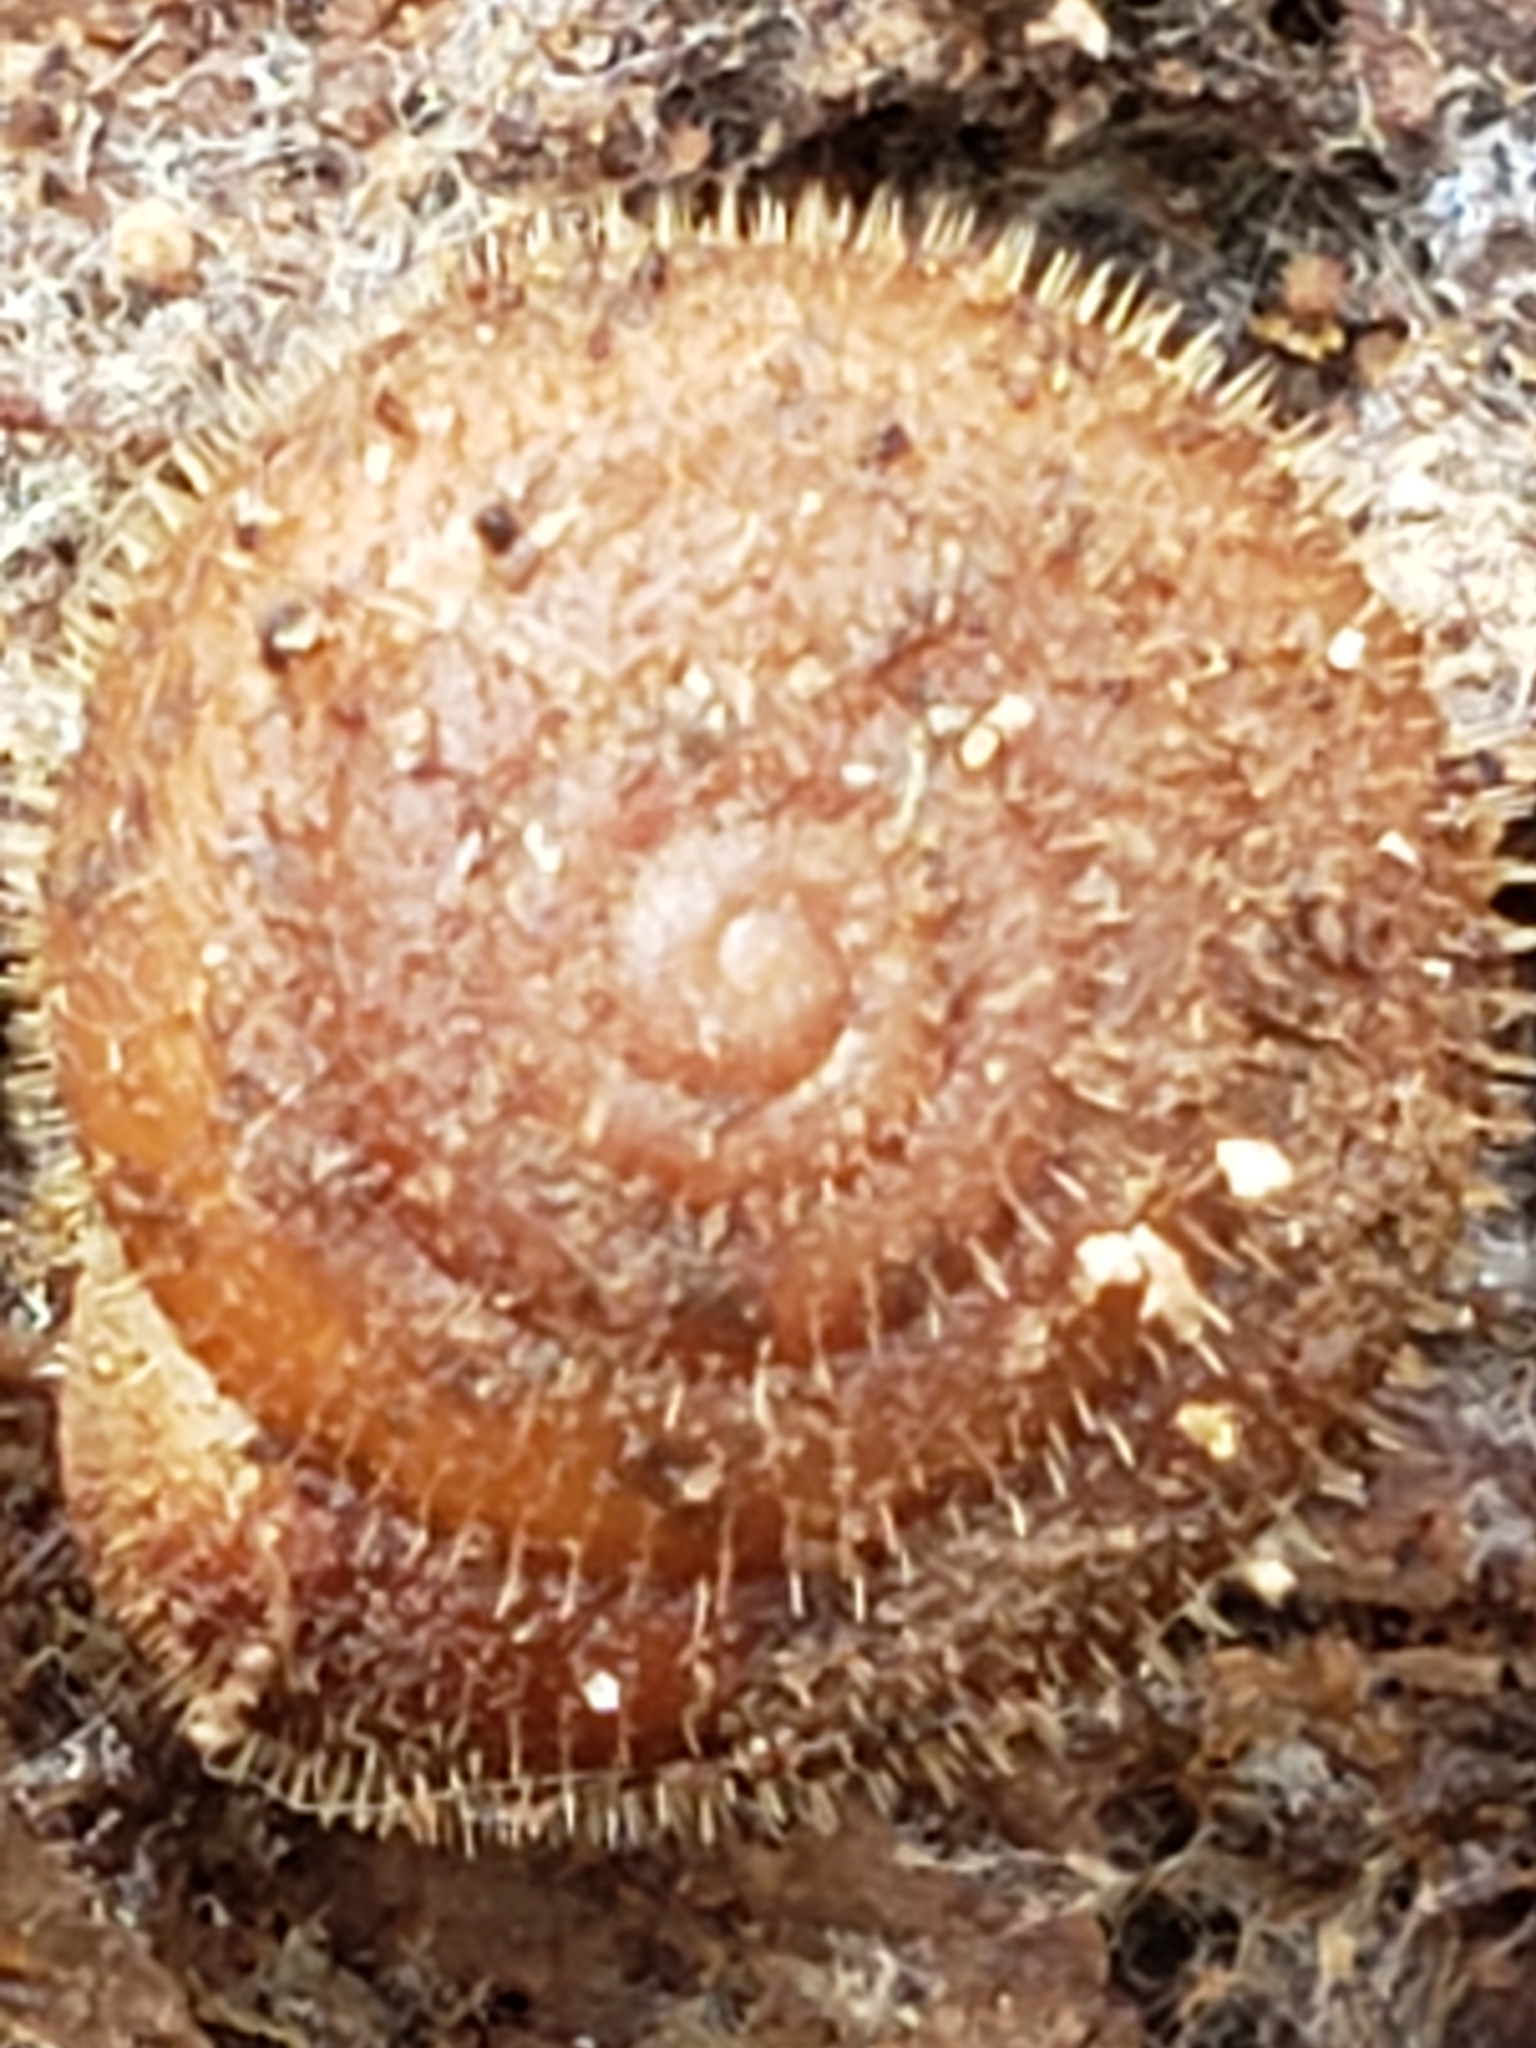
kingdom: Animalia
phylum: Mollusca
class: Gastropoda
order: Stylommatophora
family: Polygyridae
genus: Stenotrema
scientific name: Stenotrema hirsutum
